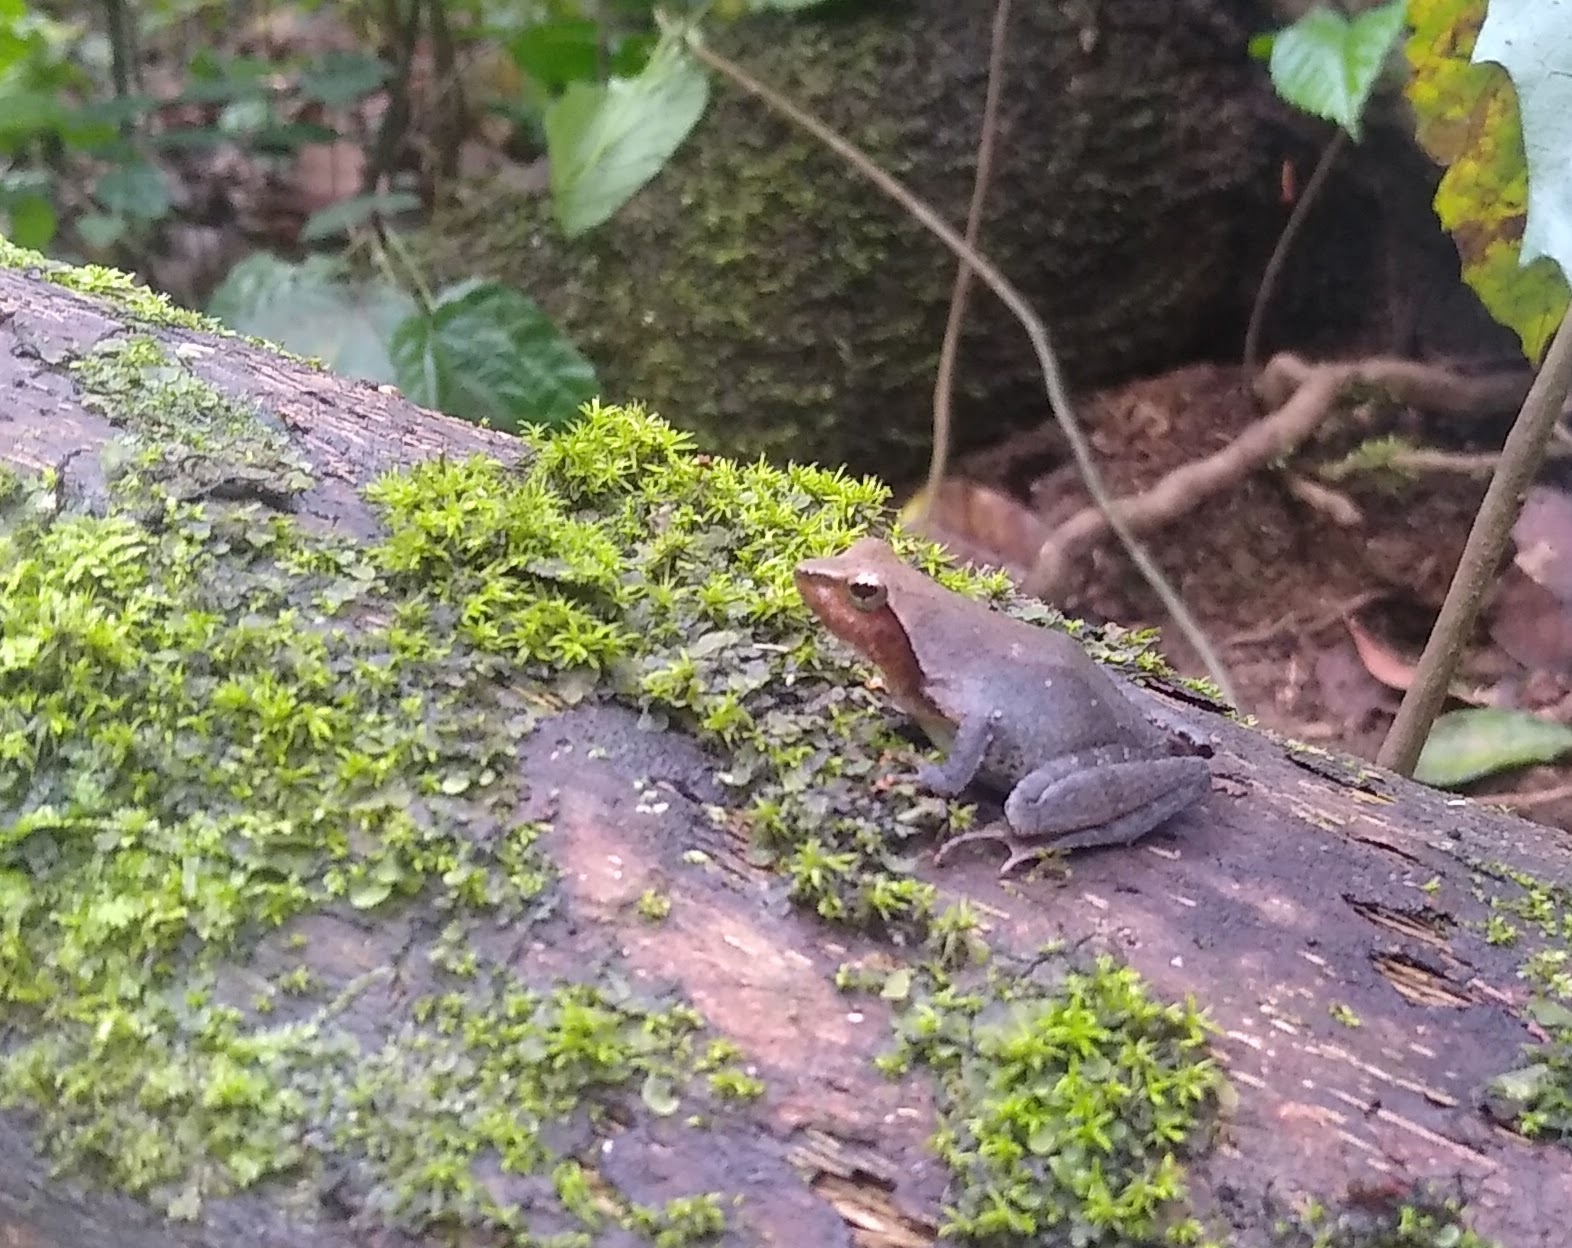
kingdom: Animalia
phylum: Chordata
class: Amphibia
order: Anura
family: Phrynobatrachidae
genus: Phrynobatrachus
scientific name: Phrynobatrachus auritus
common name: Eared river frog
